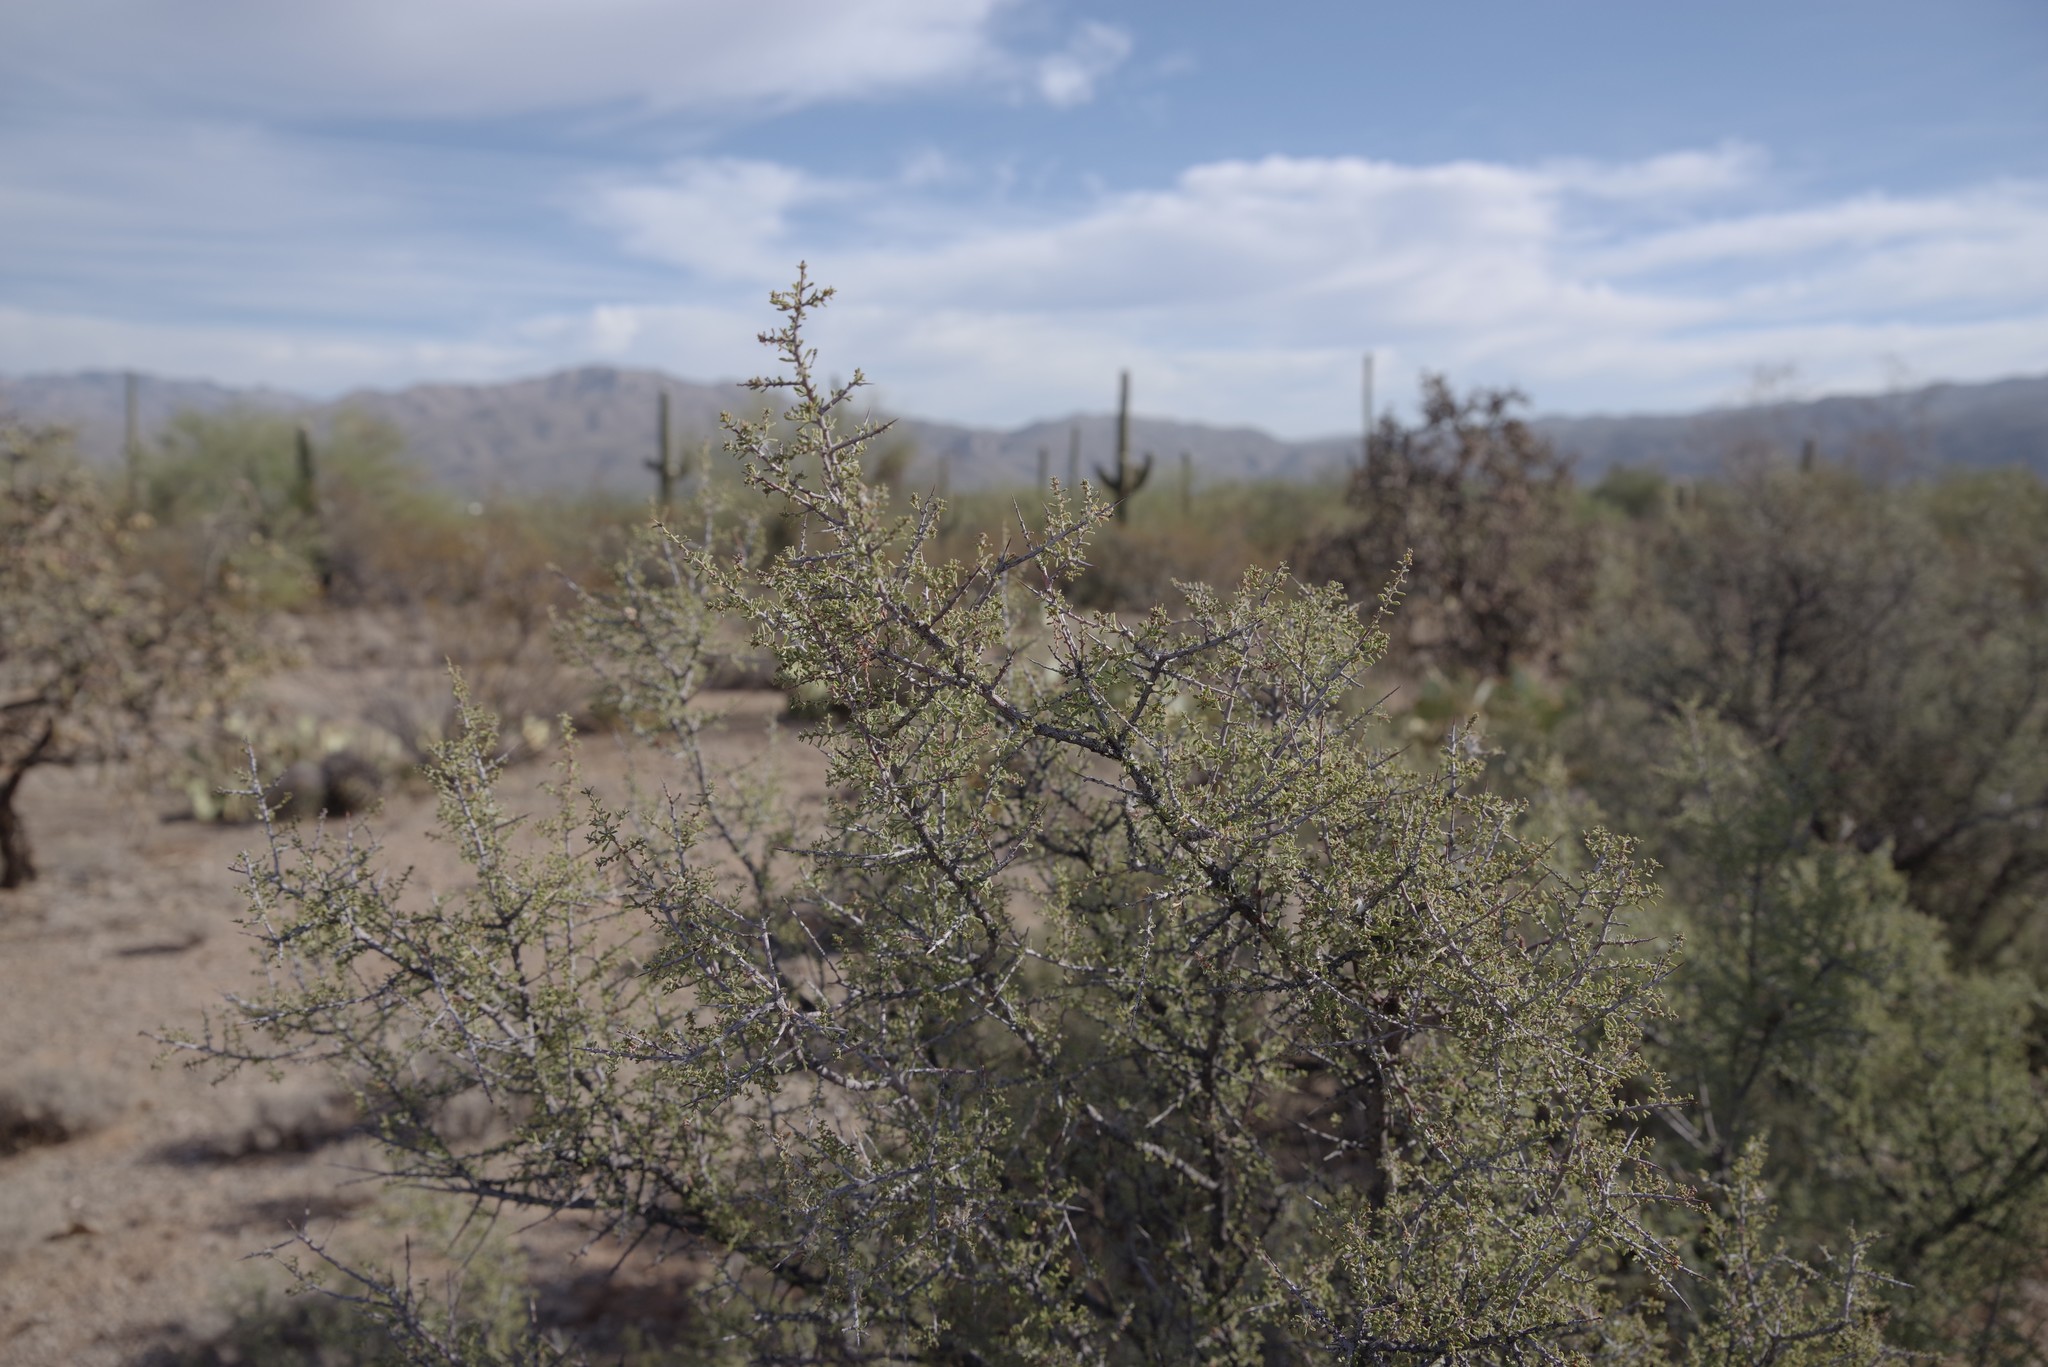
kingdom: Plantae
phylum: Tracheophyta
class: Magnoliopsida
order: Rosales
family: Rhamnaceae
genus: Condalia
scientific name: Condalia warnockii
